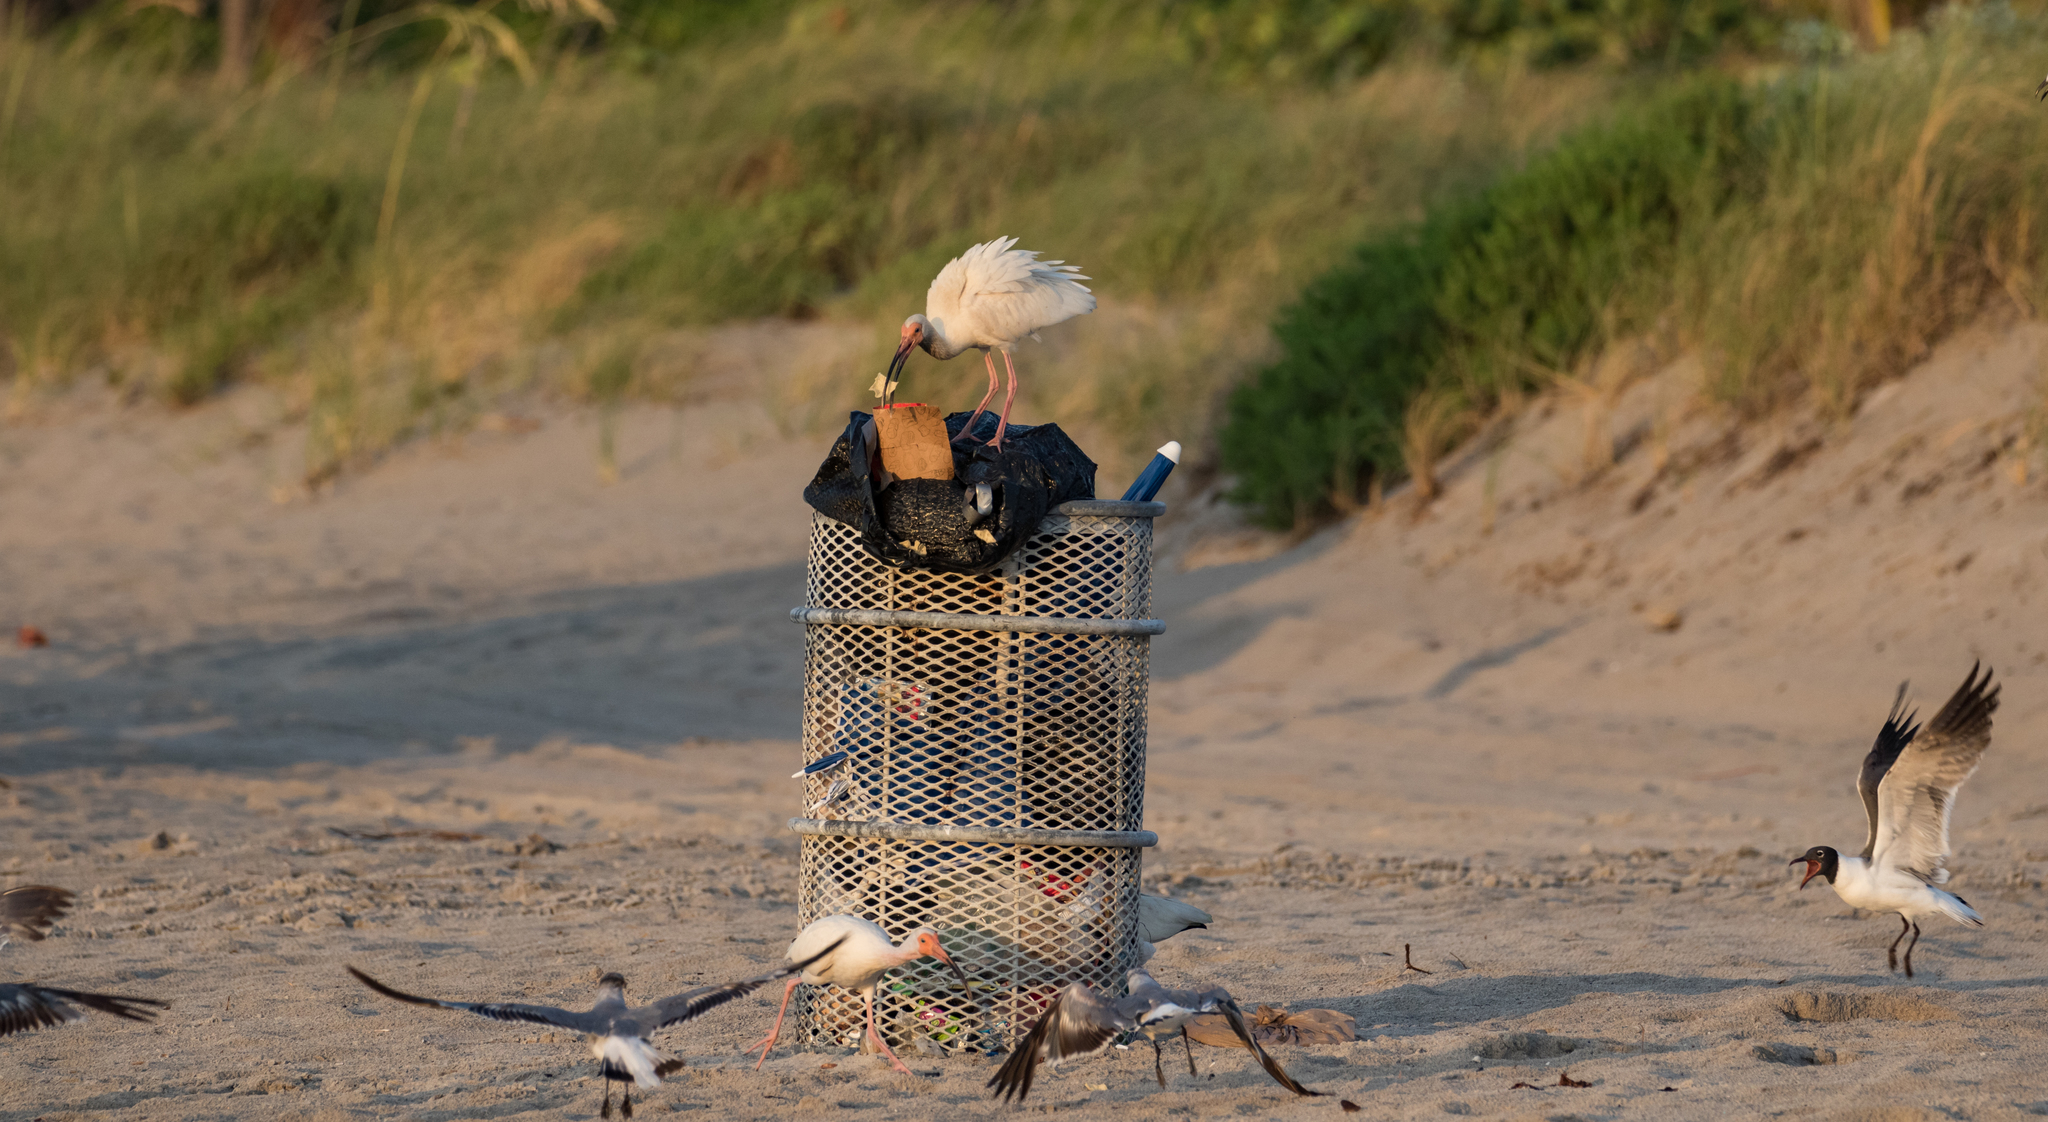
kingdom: Animalia
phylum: Chordata
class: Aves
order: Pelecaniformes
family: Threskiornithidae
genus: Eudocimus
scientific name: Eudocimus albus
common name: White ibis
